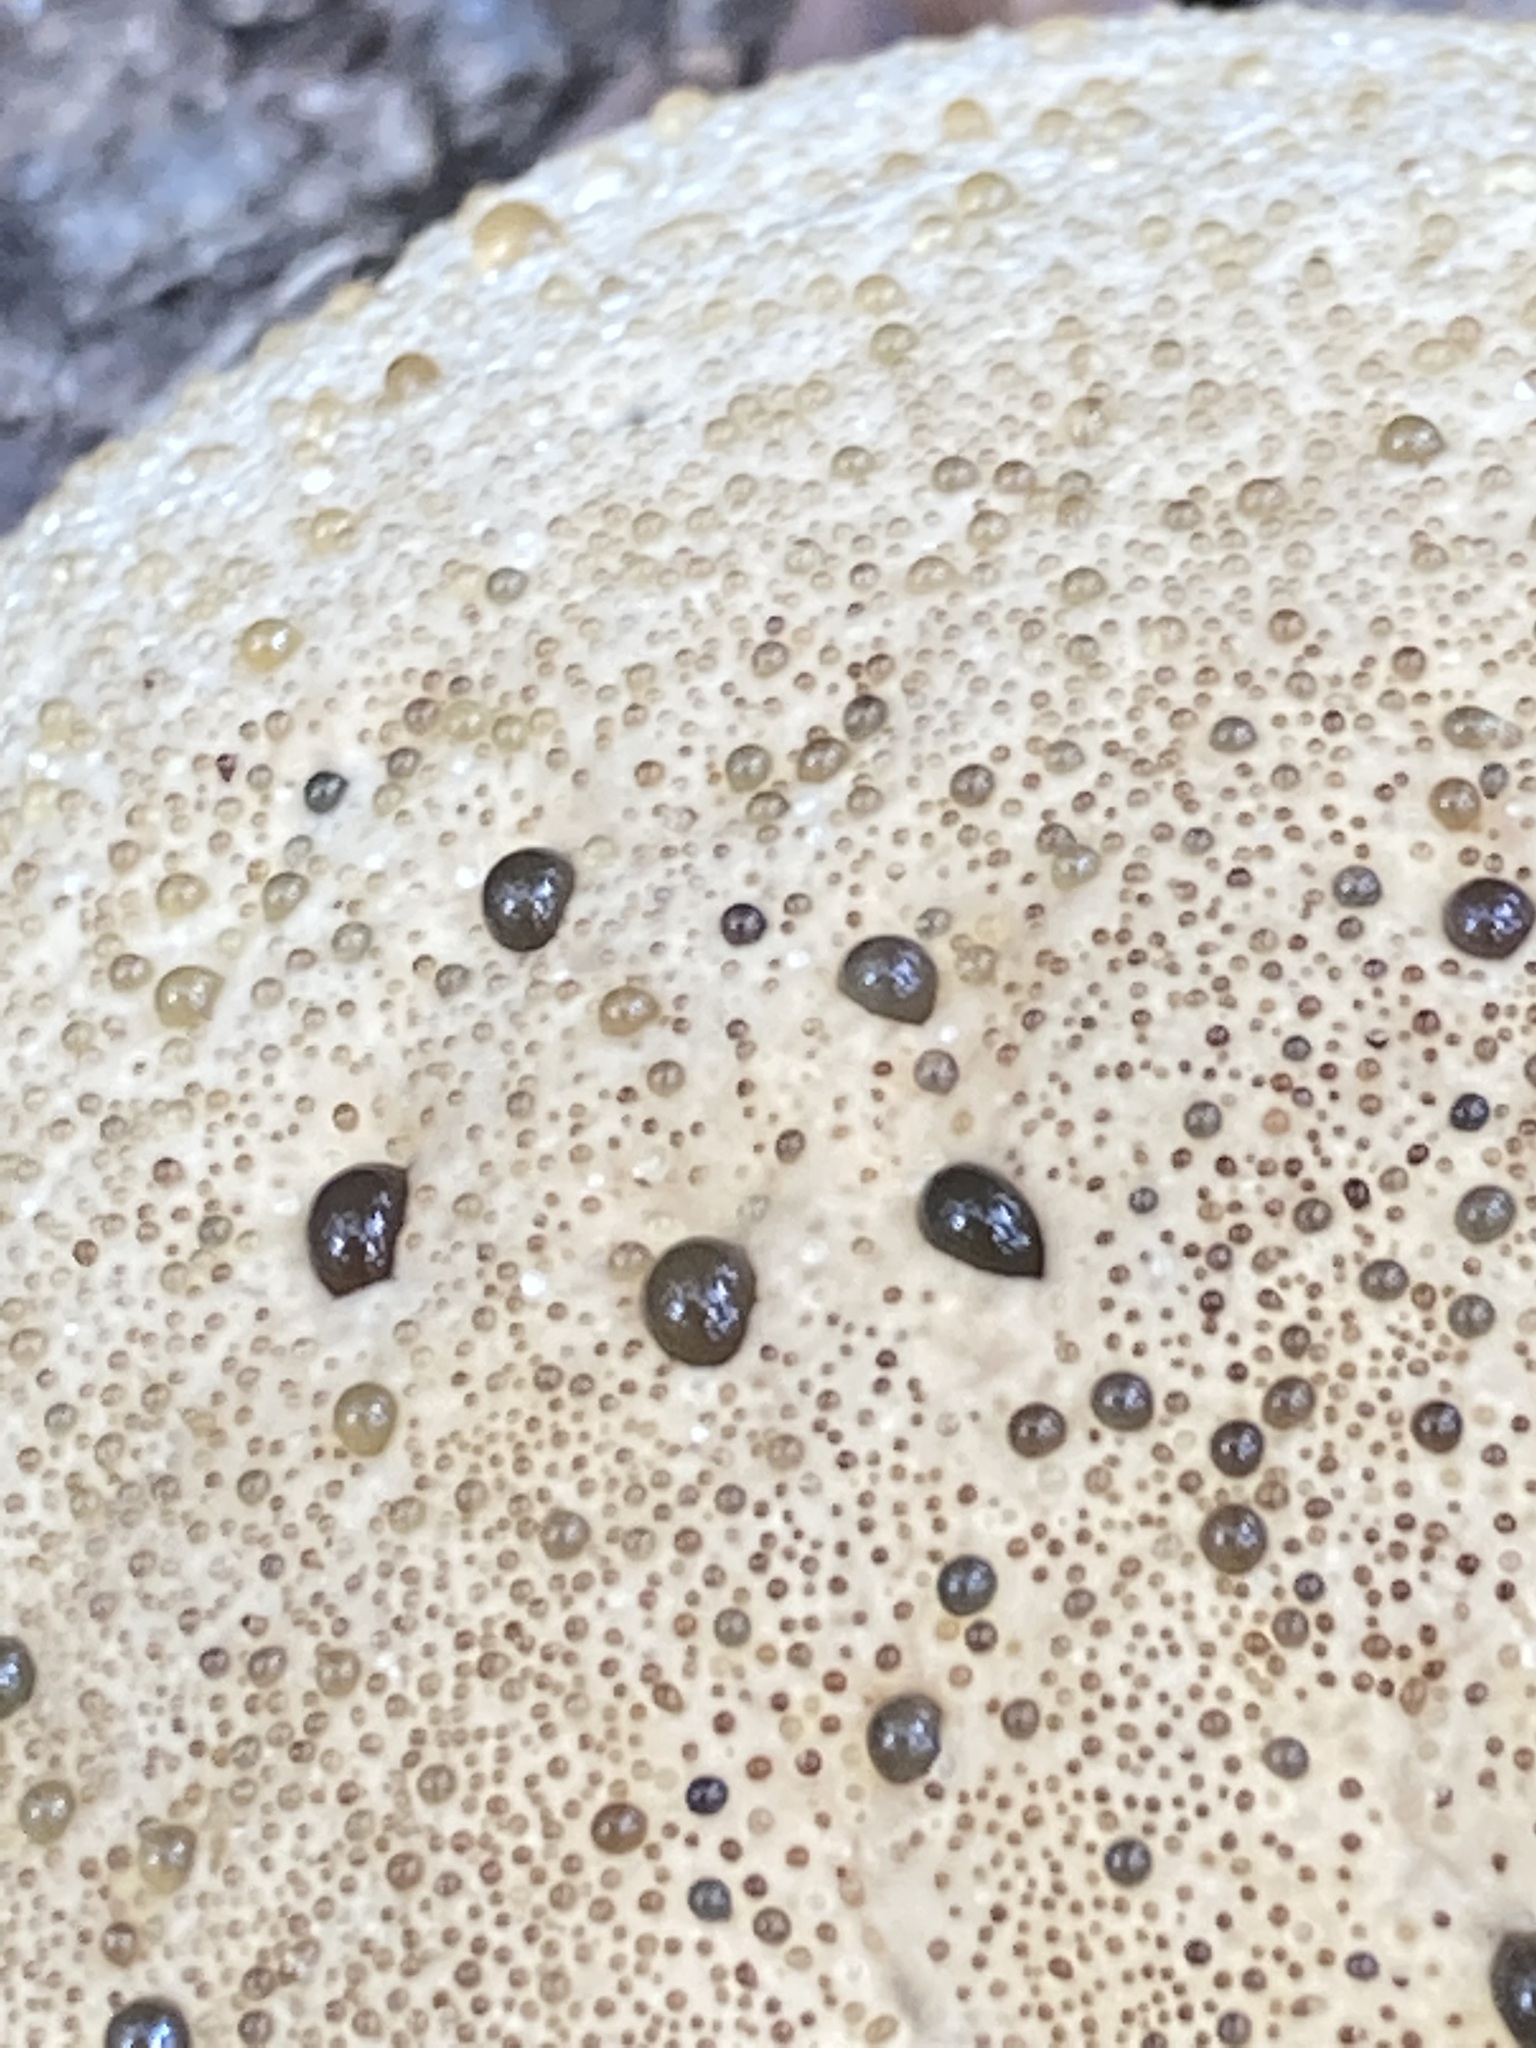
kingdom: Fungi
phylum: Basidiomycota
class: Agaricomycetes
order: Hymenochaetales
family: Hymenochaetaceae
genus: Pseudoinonotus
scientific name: Pseudoinonotus dryadeus
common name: Oak bracket
